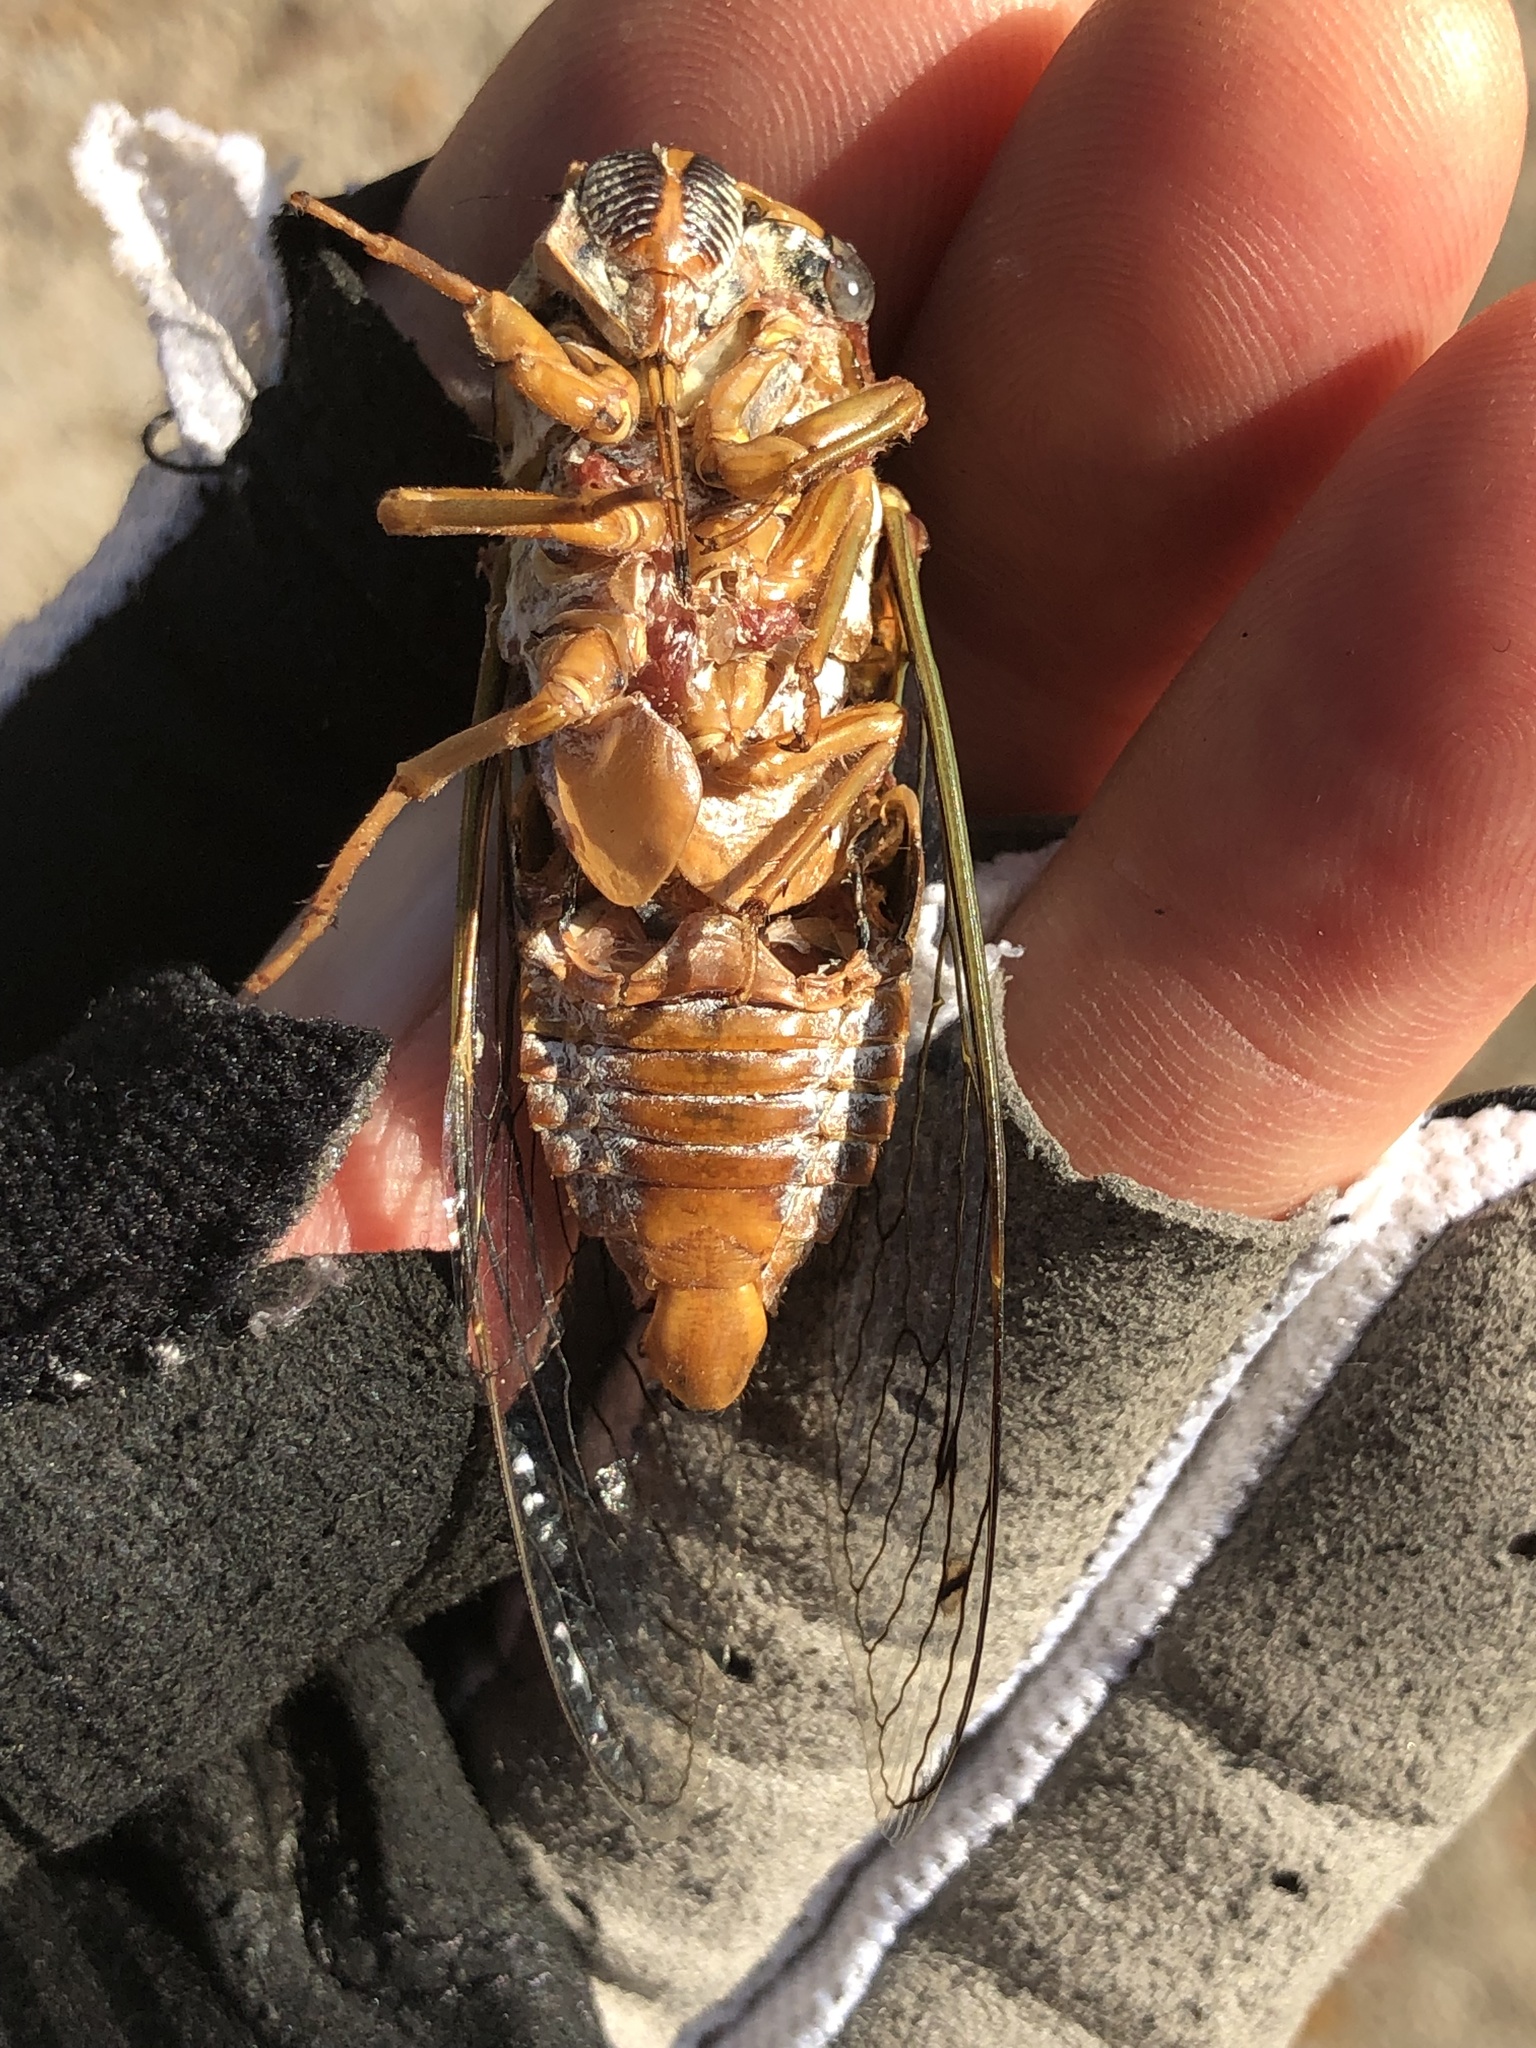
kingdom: Animalia
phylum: Arthropoda
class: Insecta
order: Hemiptera
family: Cicadidae
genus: Megatibicen
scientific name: Megatibicen resh
